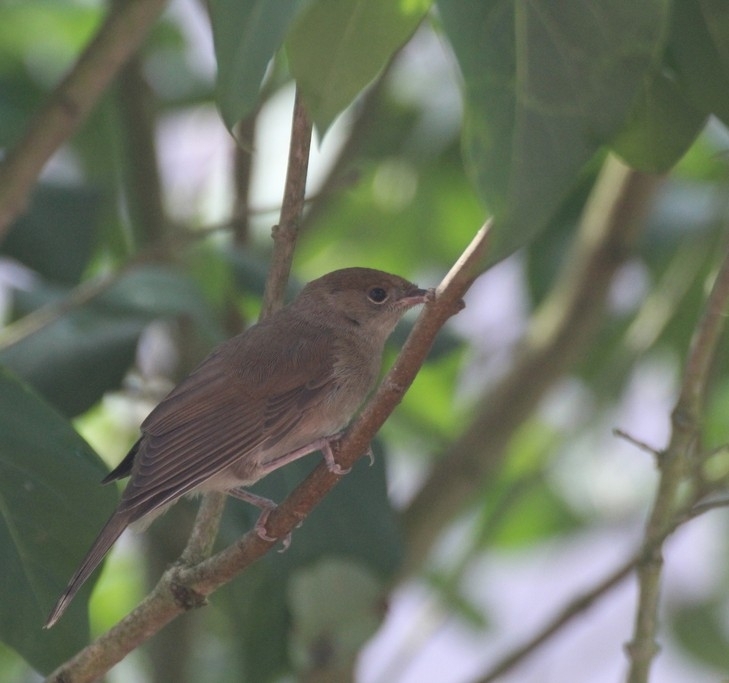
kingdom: Animalia
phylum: Chordata
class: Aves
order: Passeriformes
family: Sylviidae
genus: Sylvia
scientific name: Sylvia atricapilla
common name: Eurasian blackcap
